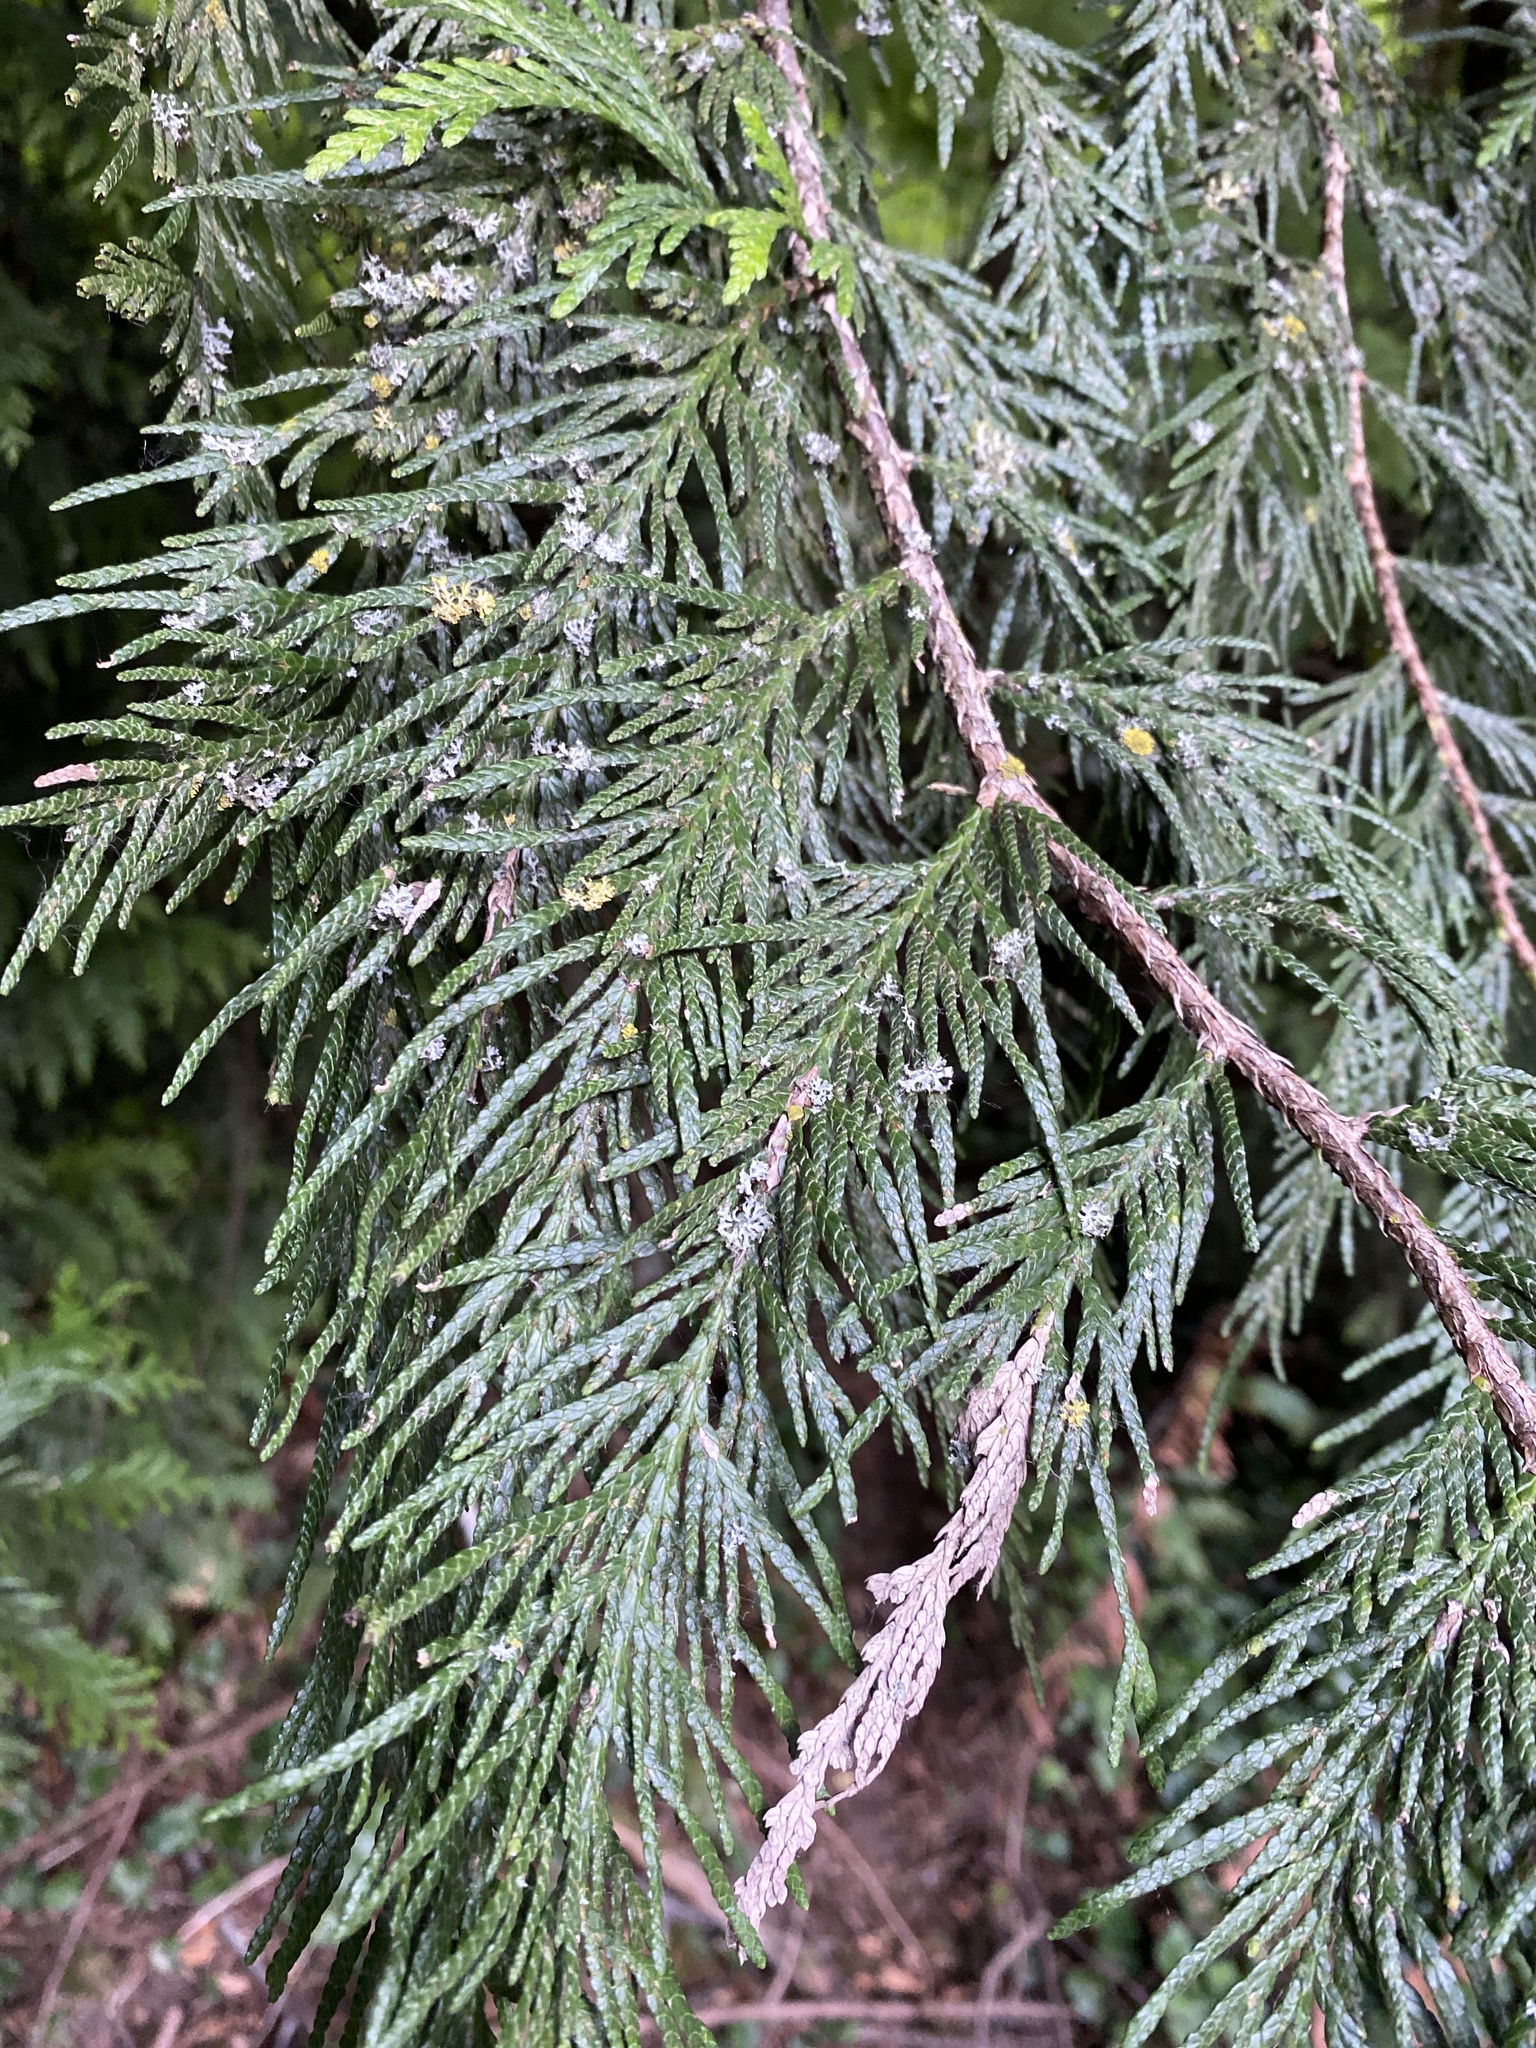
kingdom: Plantae
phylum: Tracheophyta
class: Pinopsida
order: Pinales
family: Cupressaceae
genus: Thuja
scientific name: Thuja plicata
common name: Western red-cedar
